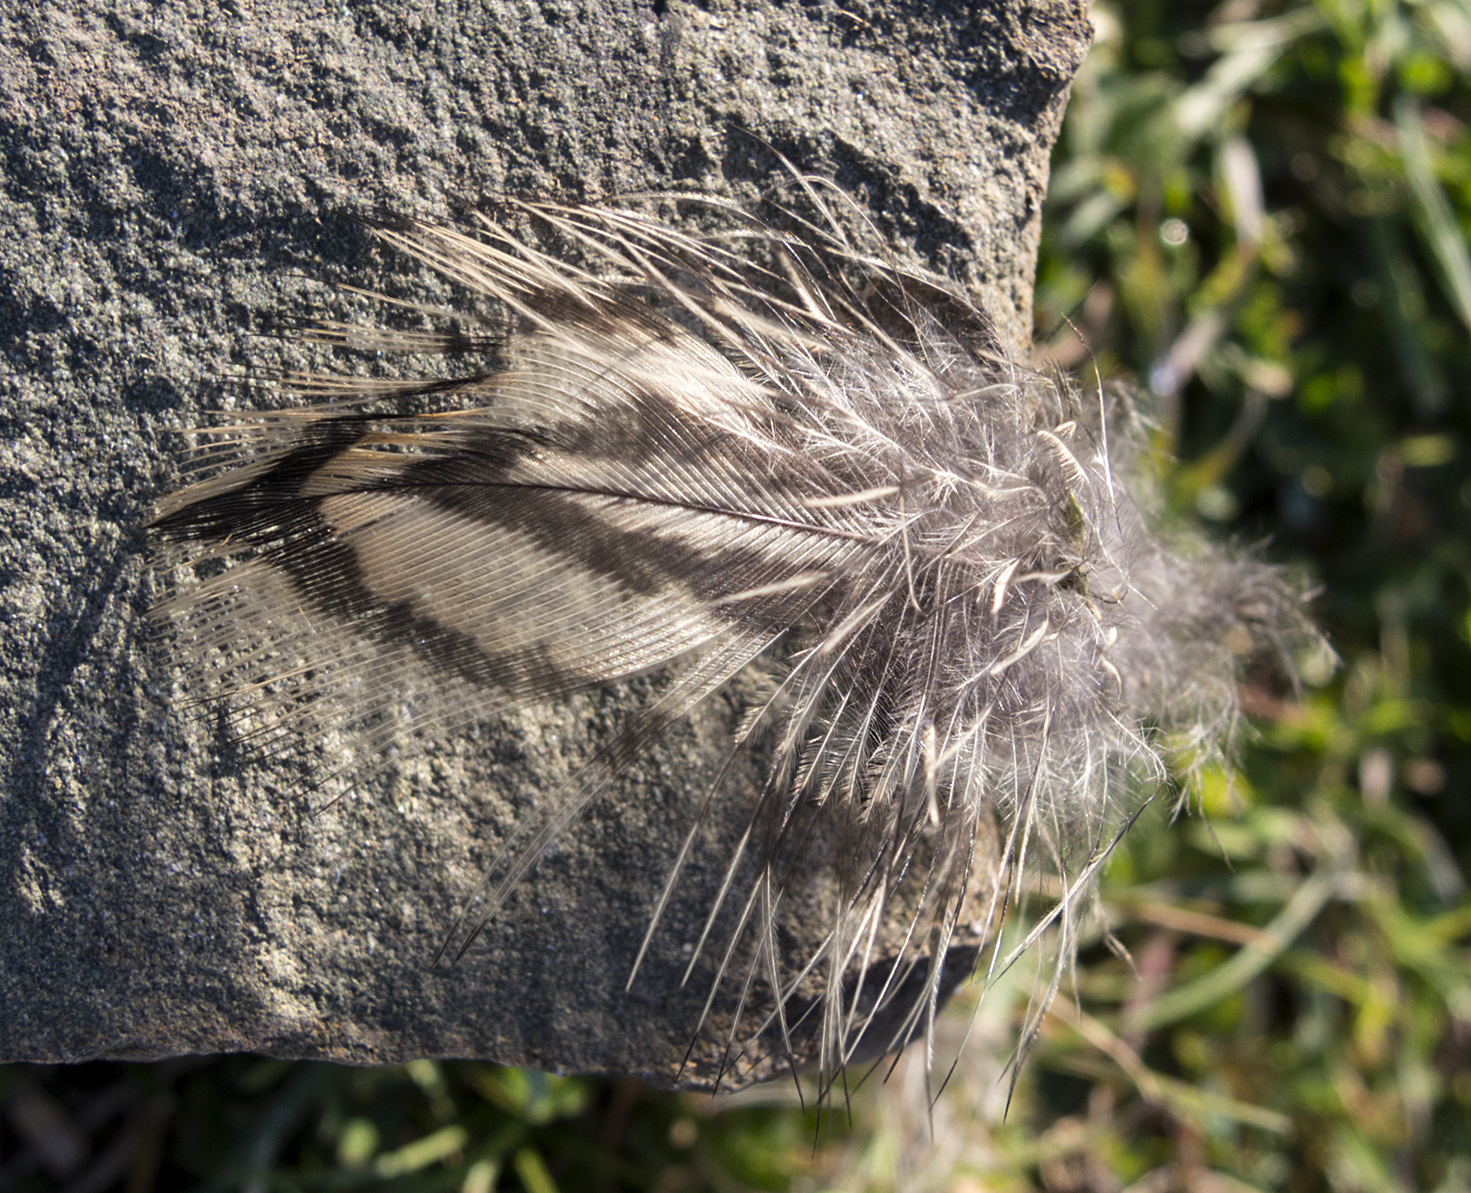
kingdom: Animalia
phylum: Chordata
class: Aves
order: Charadriiformes
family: Scolopacidae
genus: Scolopax
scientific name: Scolopax rusticola
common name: Eurasian woodcock
